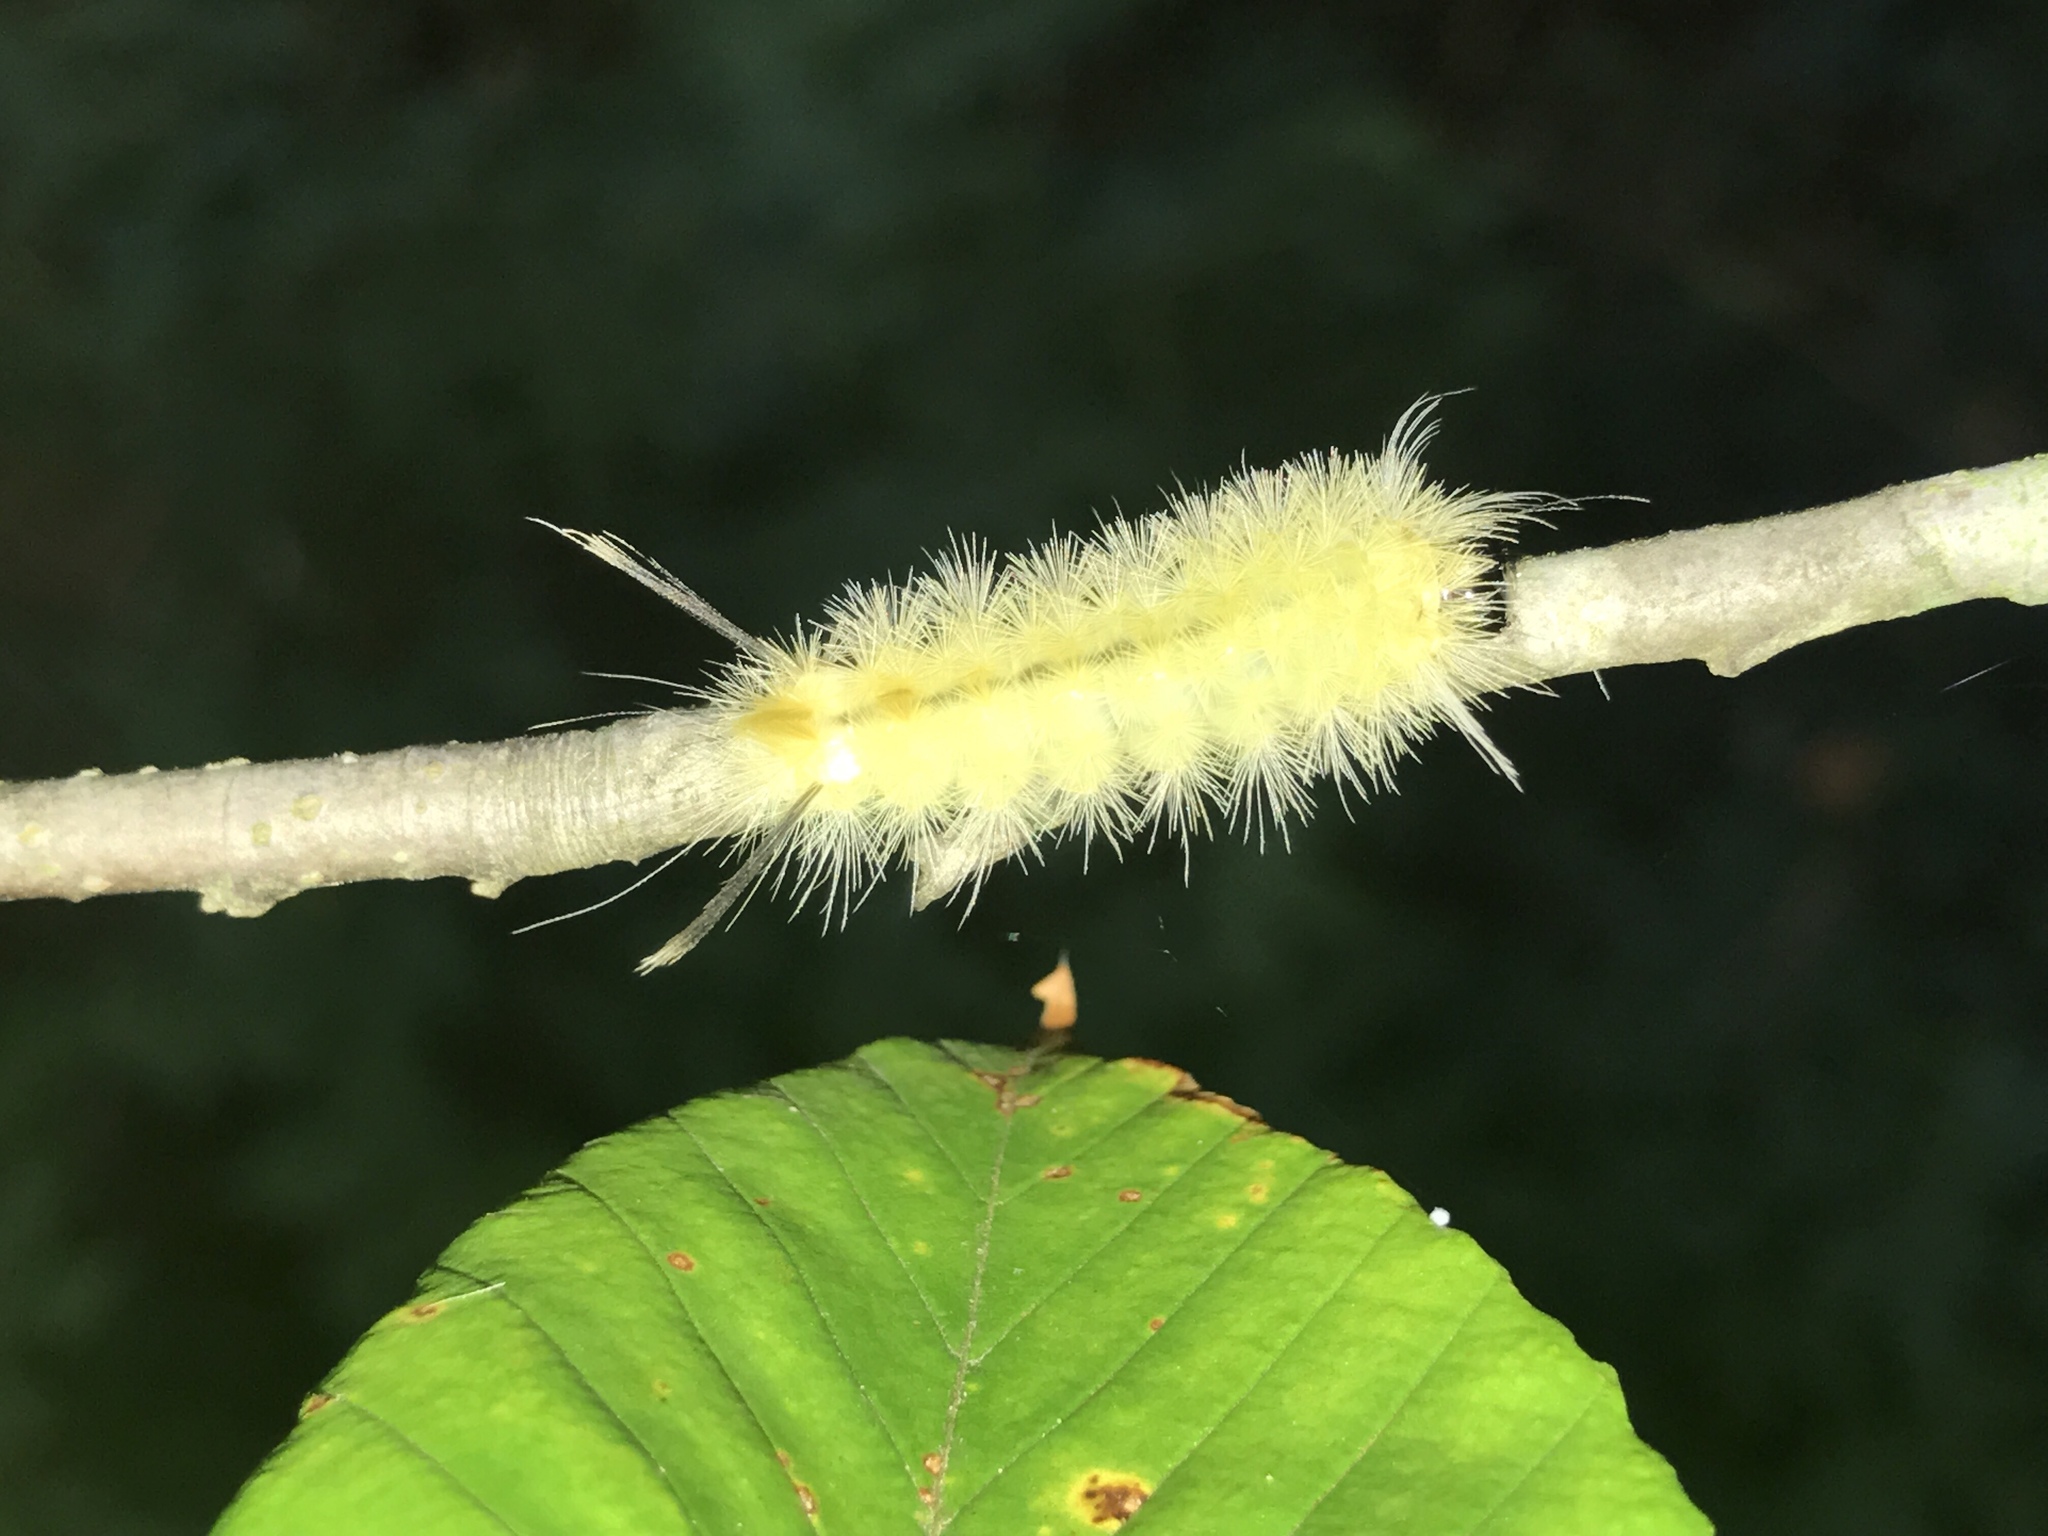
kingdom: Animalia
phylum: Arthropoda
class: Insecta
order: Lepidoptera
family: Erebidae
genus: Halysidota
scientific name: Halysidota tessellaris
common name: Banded tussock moth
